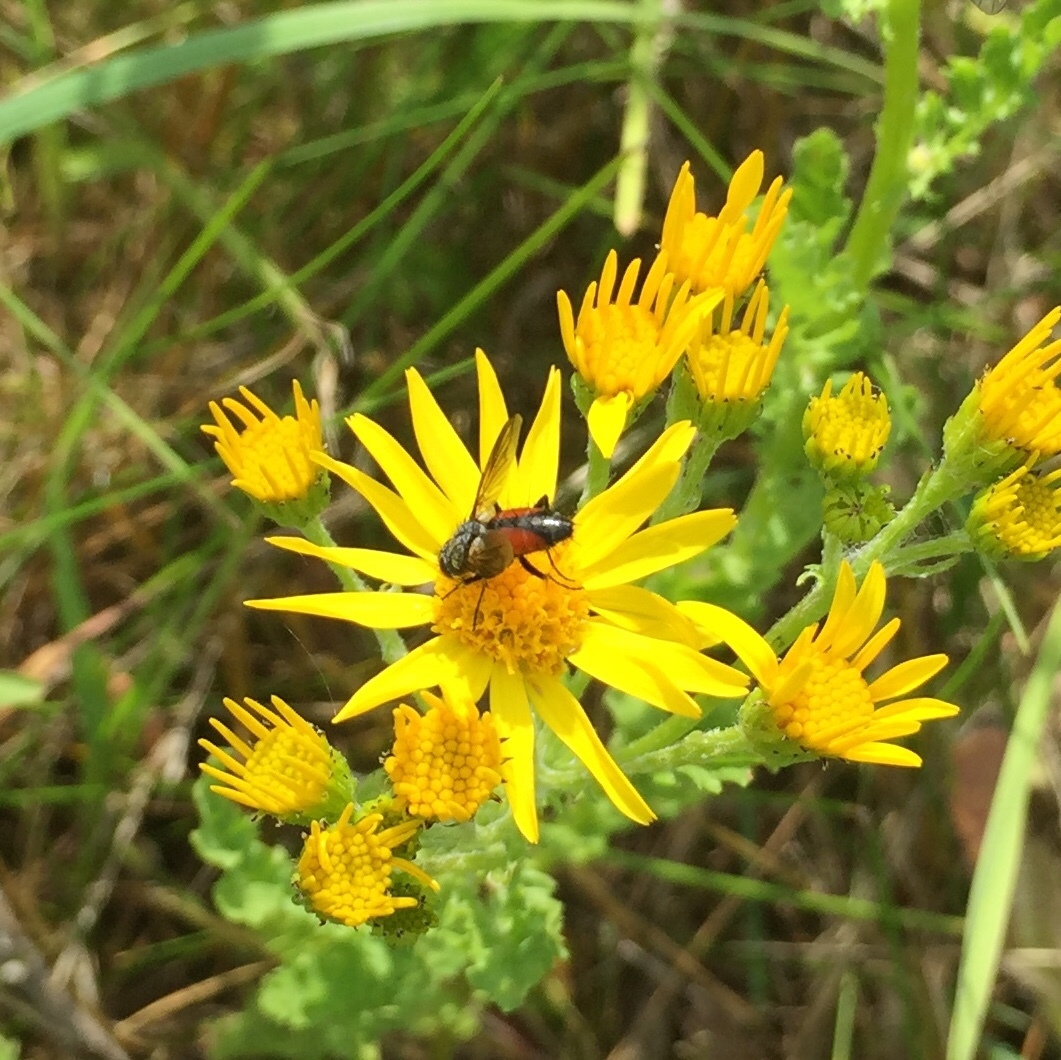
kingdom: Animalia
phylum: Arthropoda
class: Insecta
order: Diptera
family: Tachinidae
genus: Eriothrix
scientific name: Eriothrix rufomaculatus
